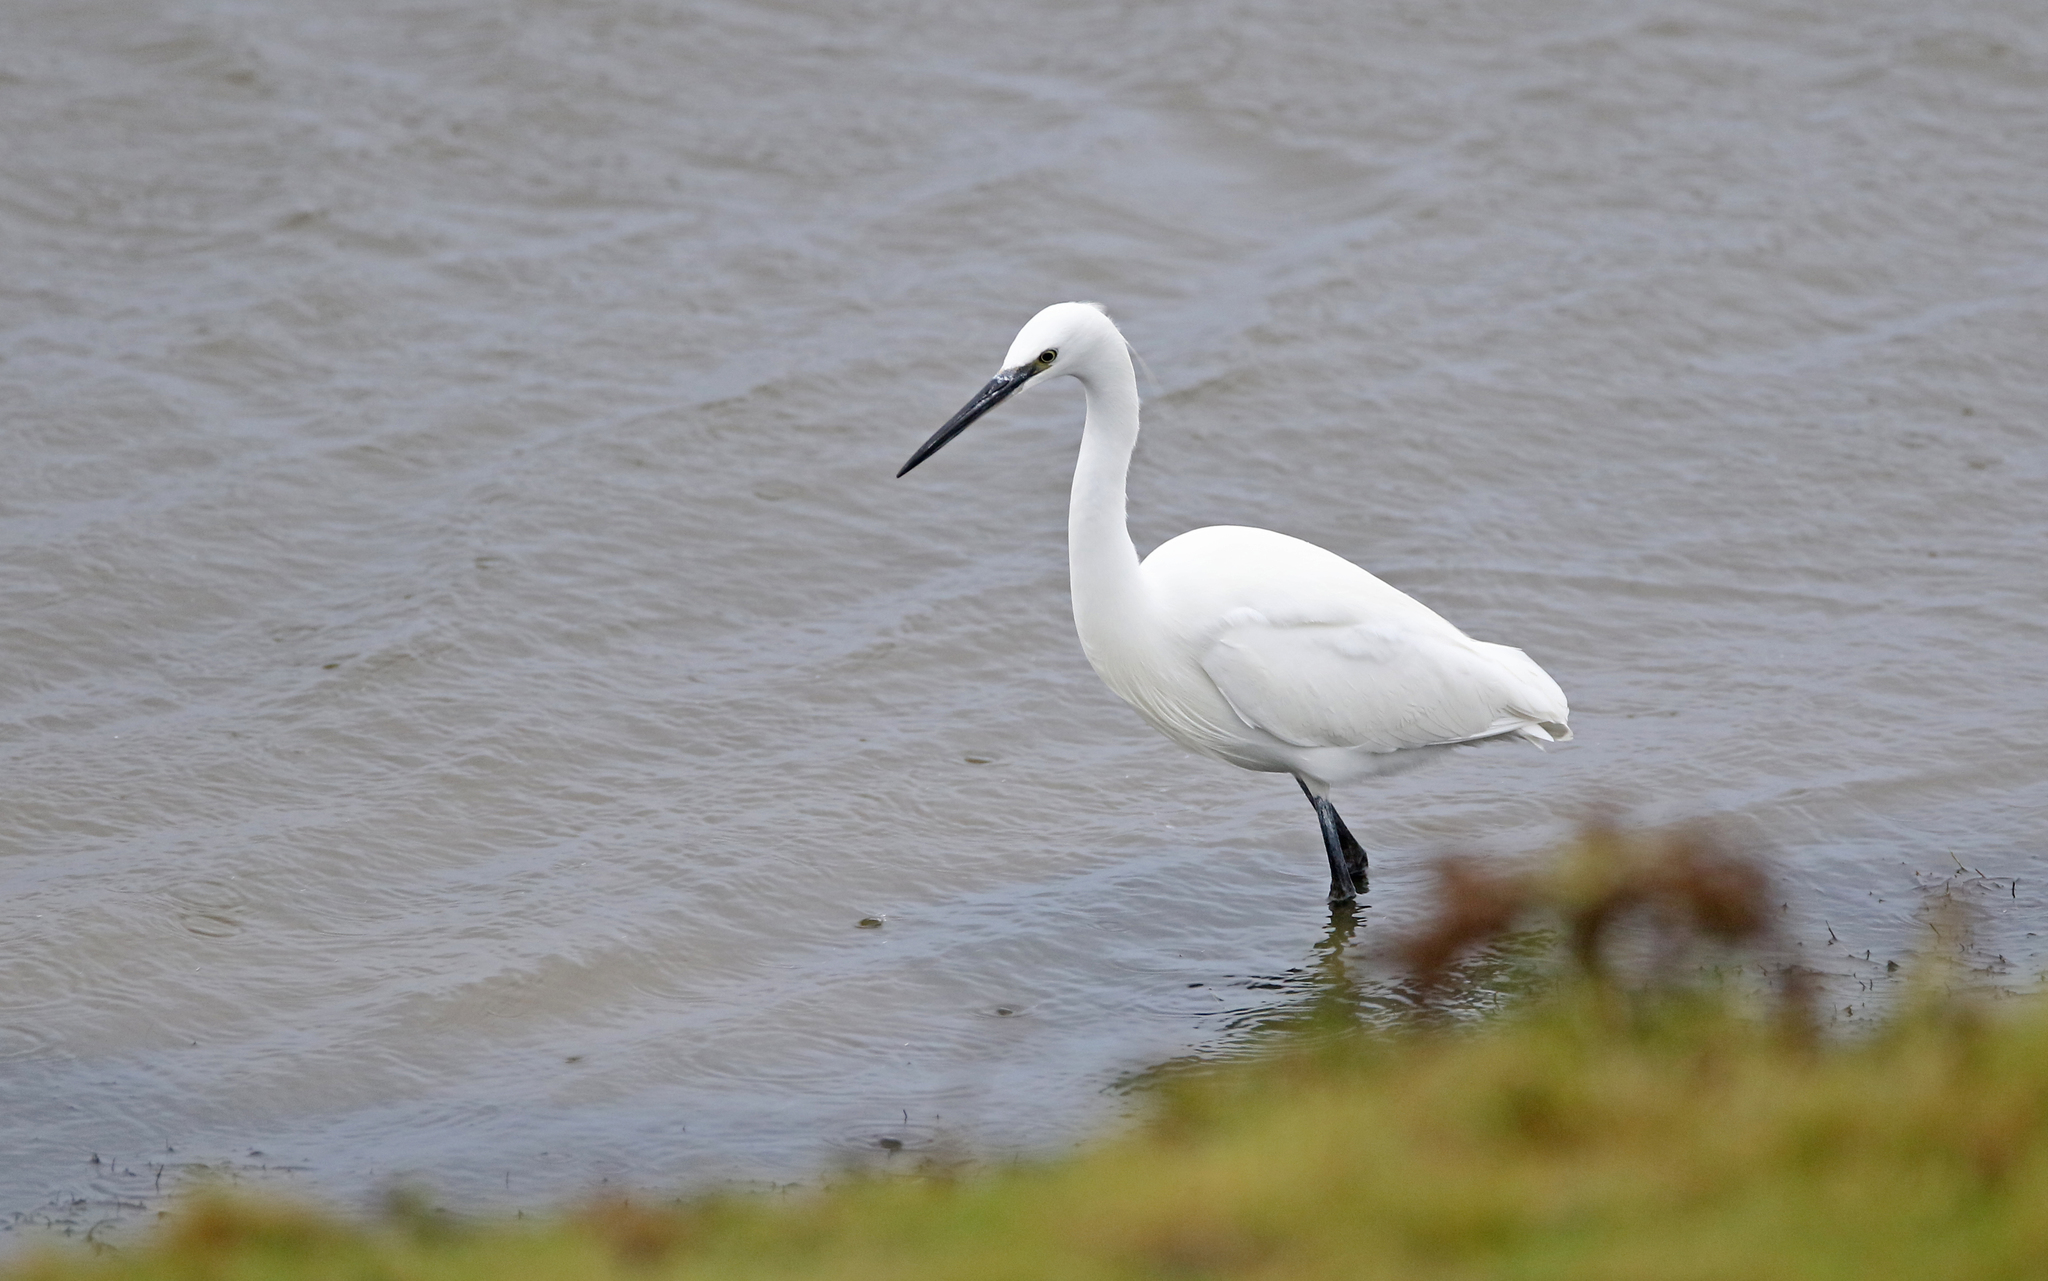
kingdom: Animalia
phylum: Chordata
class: Aves
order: Pelecaniformes
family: Ardeidae
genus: Egretta
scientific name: Egretta garzetta
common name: Little egret
